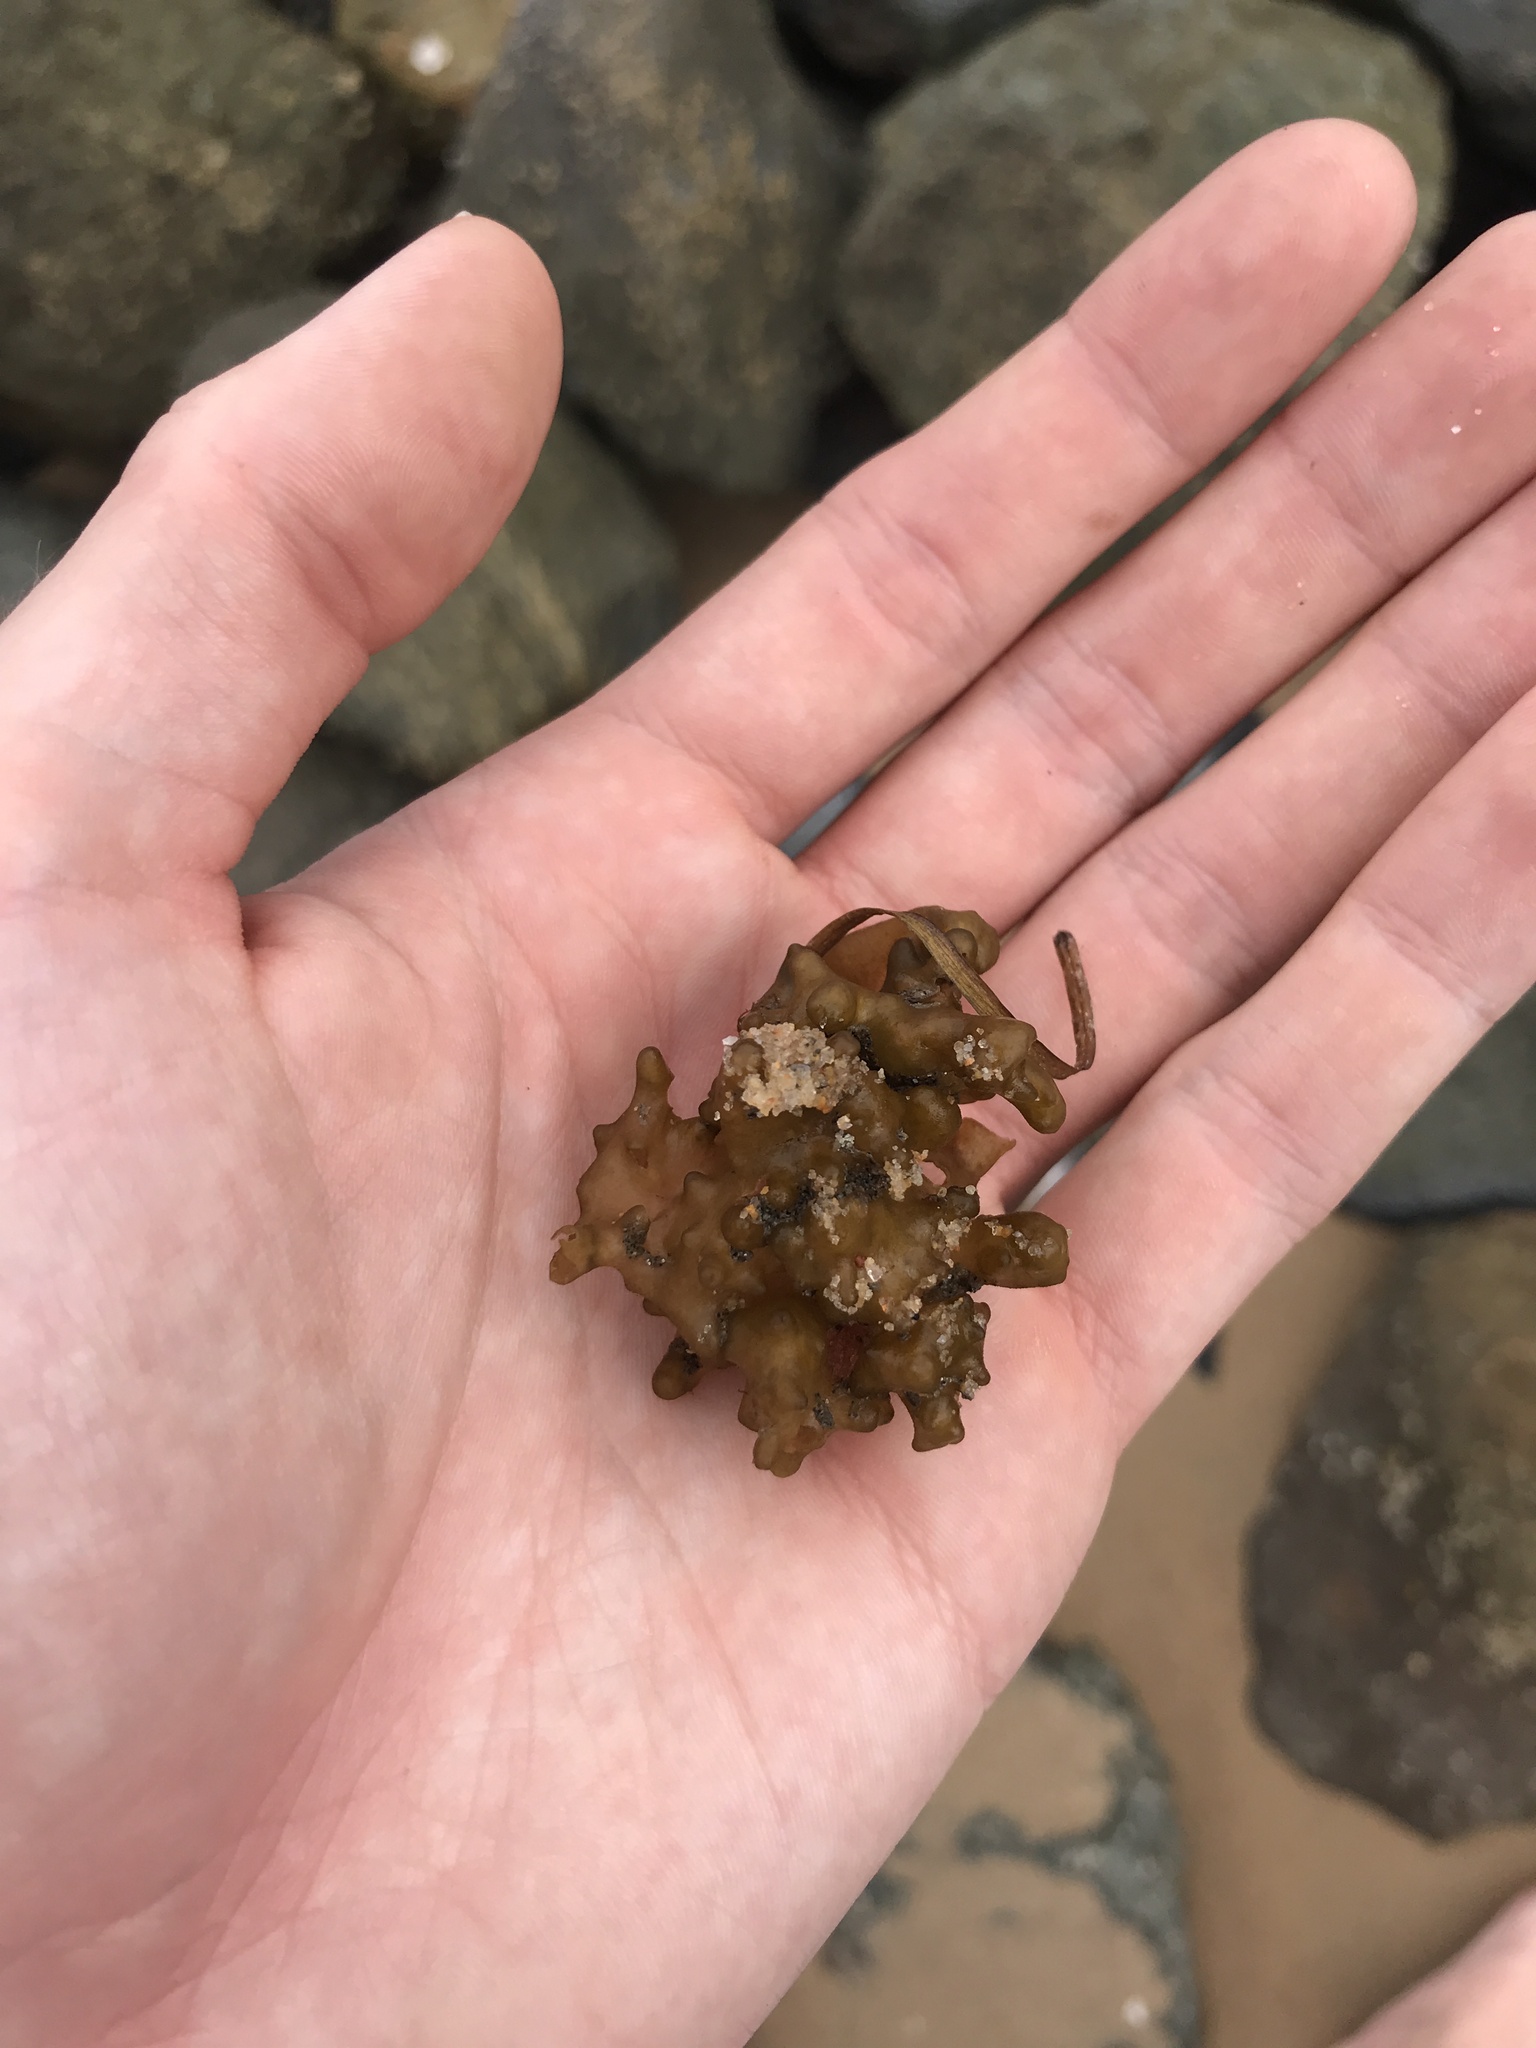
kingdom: Chromista
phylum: Ochrophyta
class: Phaeophyceae
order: Scytosiphonales
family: Scytosiphonaceae
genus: Colpomenia
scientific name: Colpomenia
